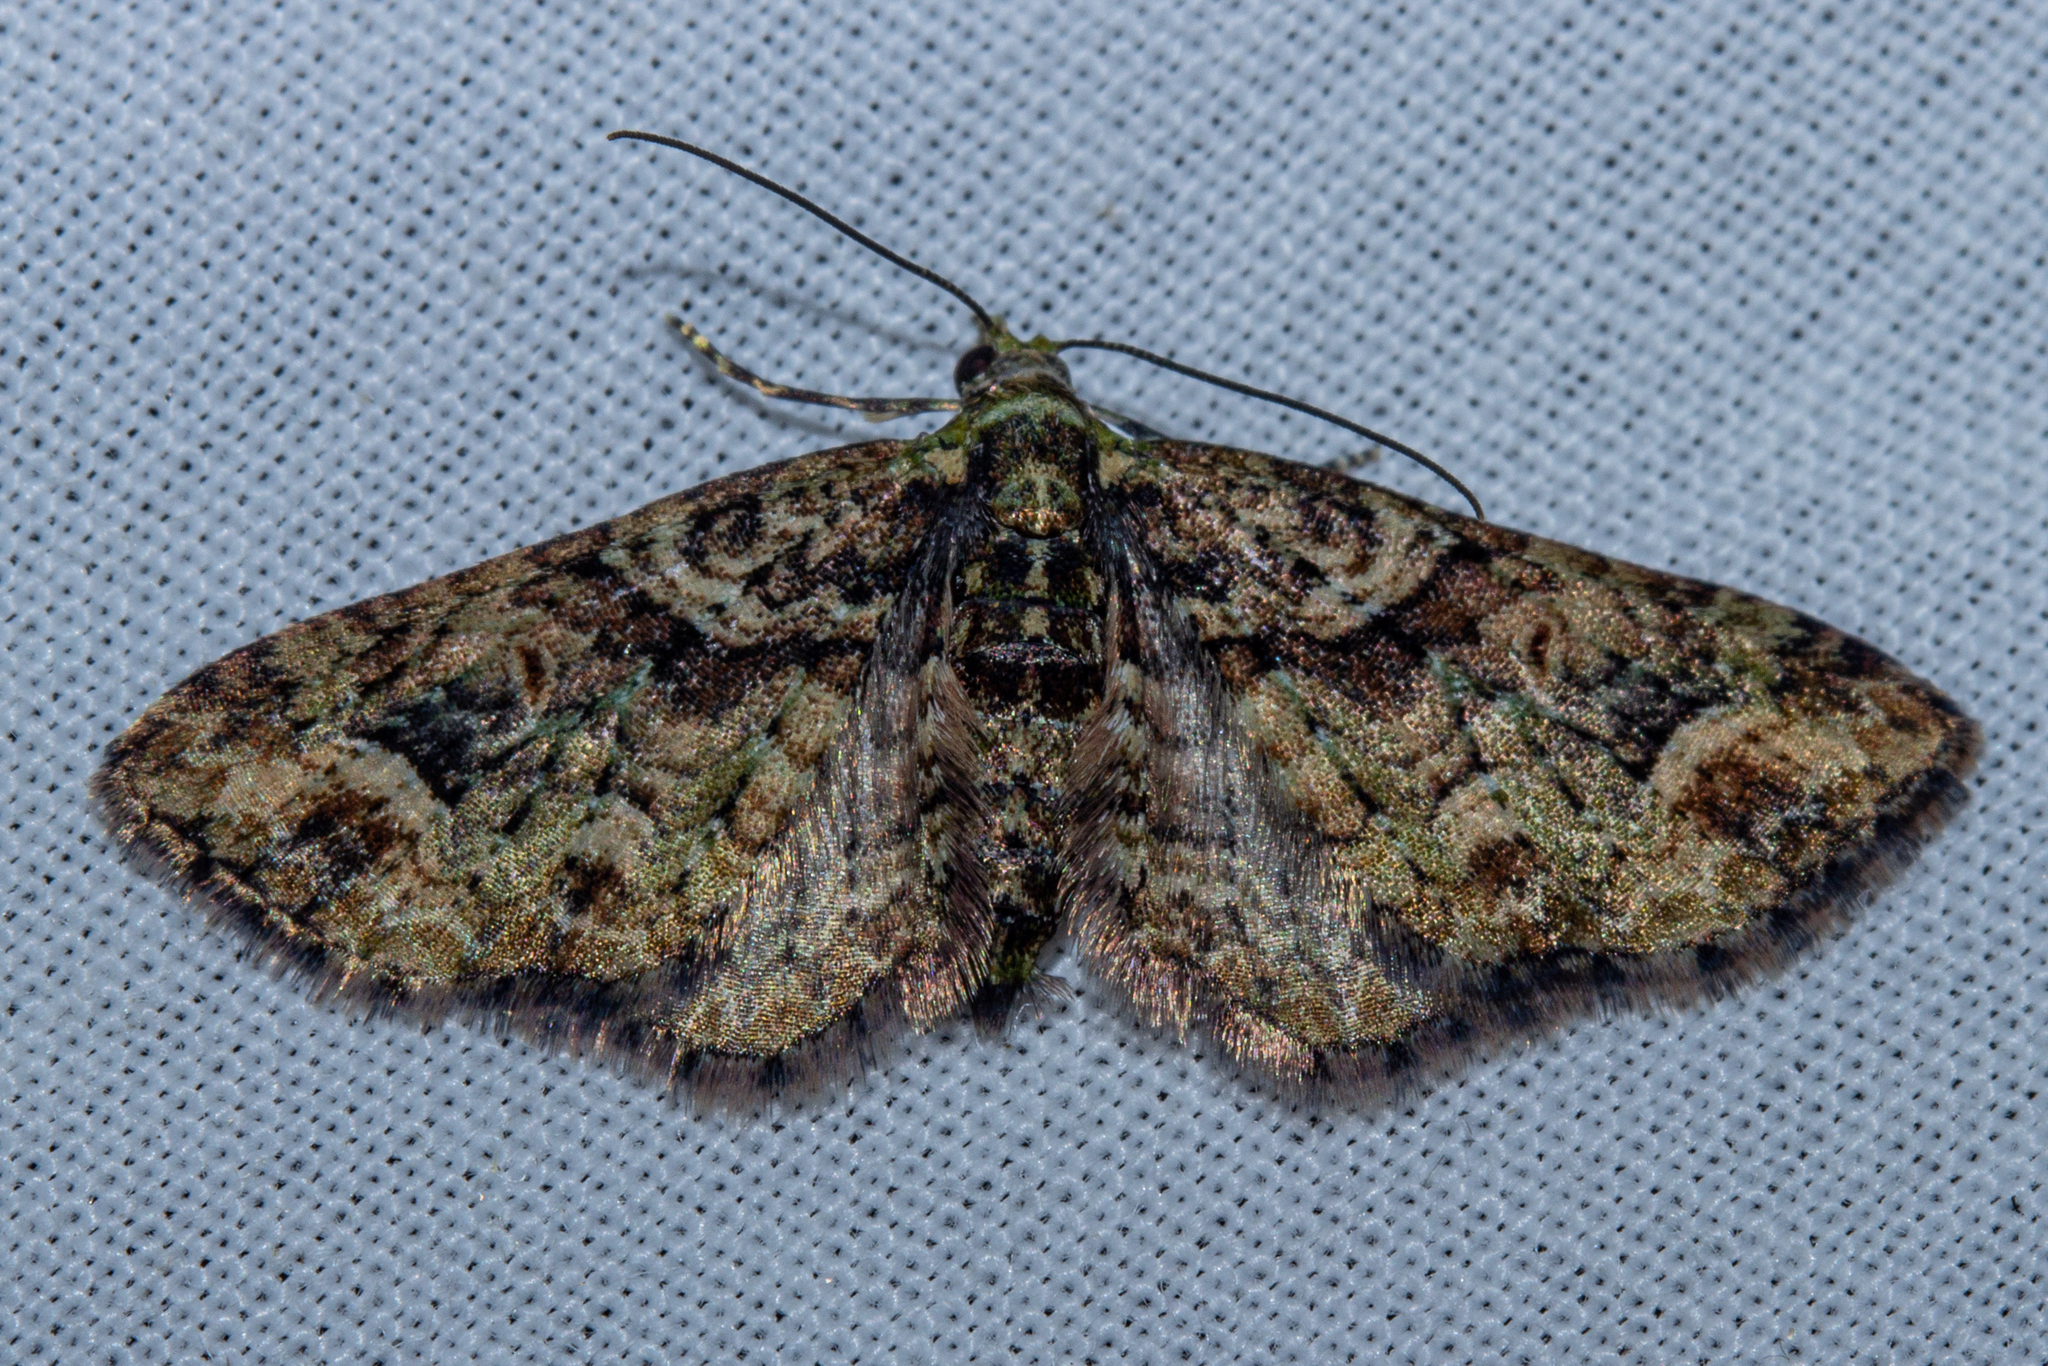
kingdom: Animalia
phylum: Arthropoda
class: Insecta
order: Lepidoptera
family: Geometridae
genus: Idaea
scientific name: Idaea mutanda
